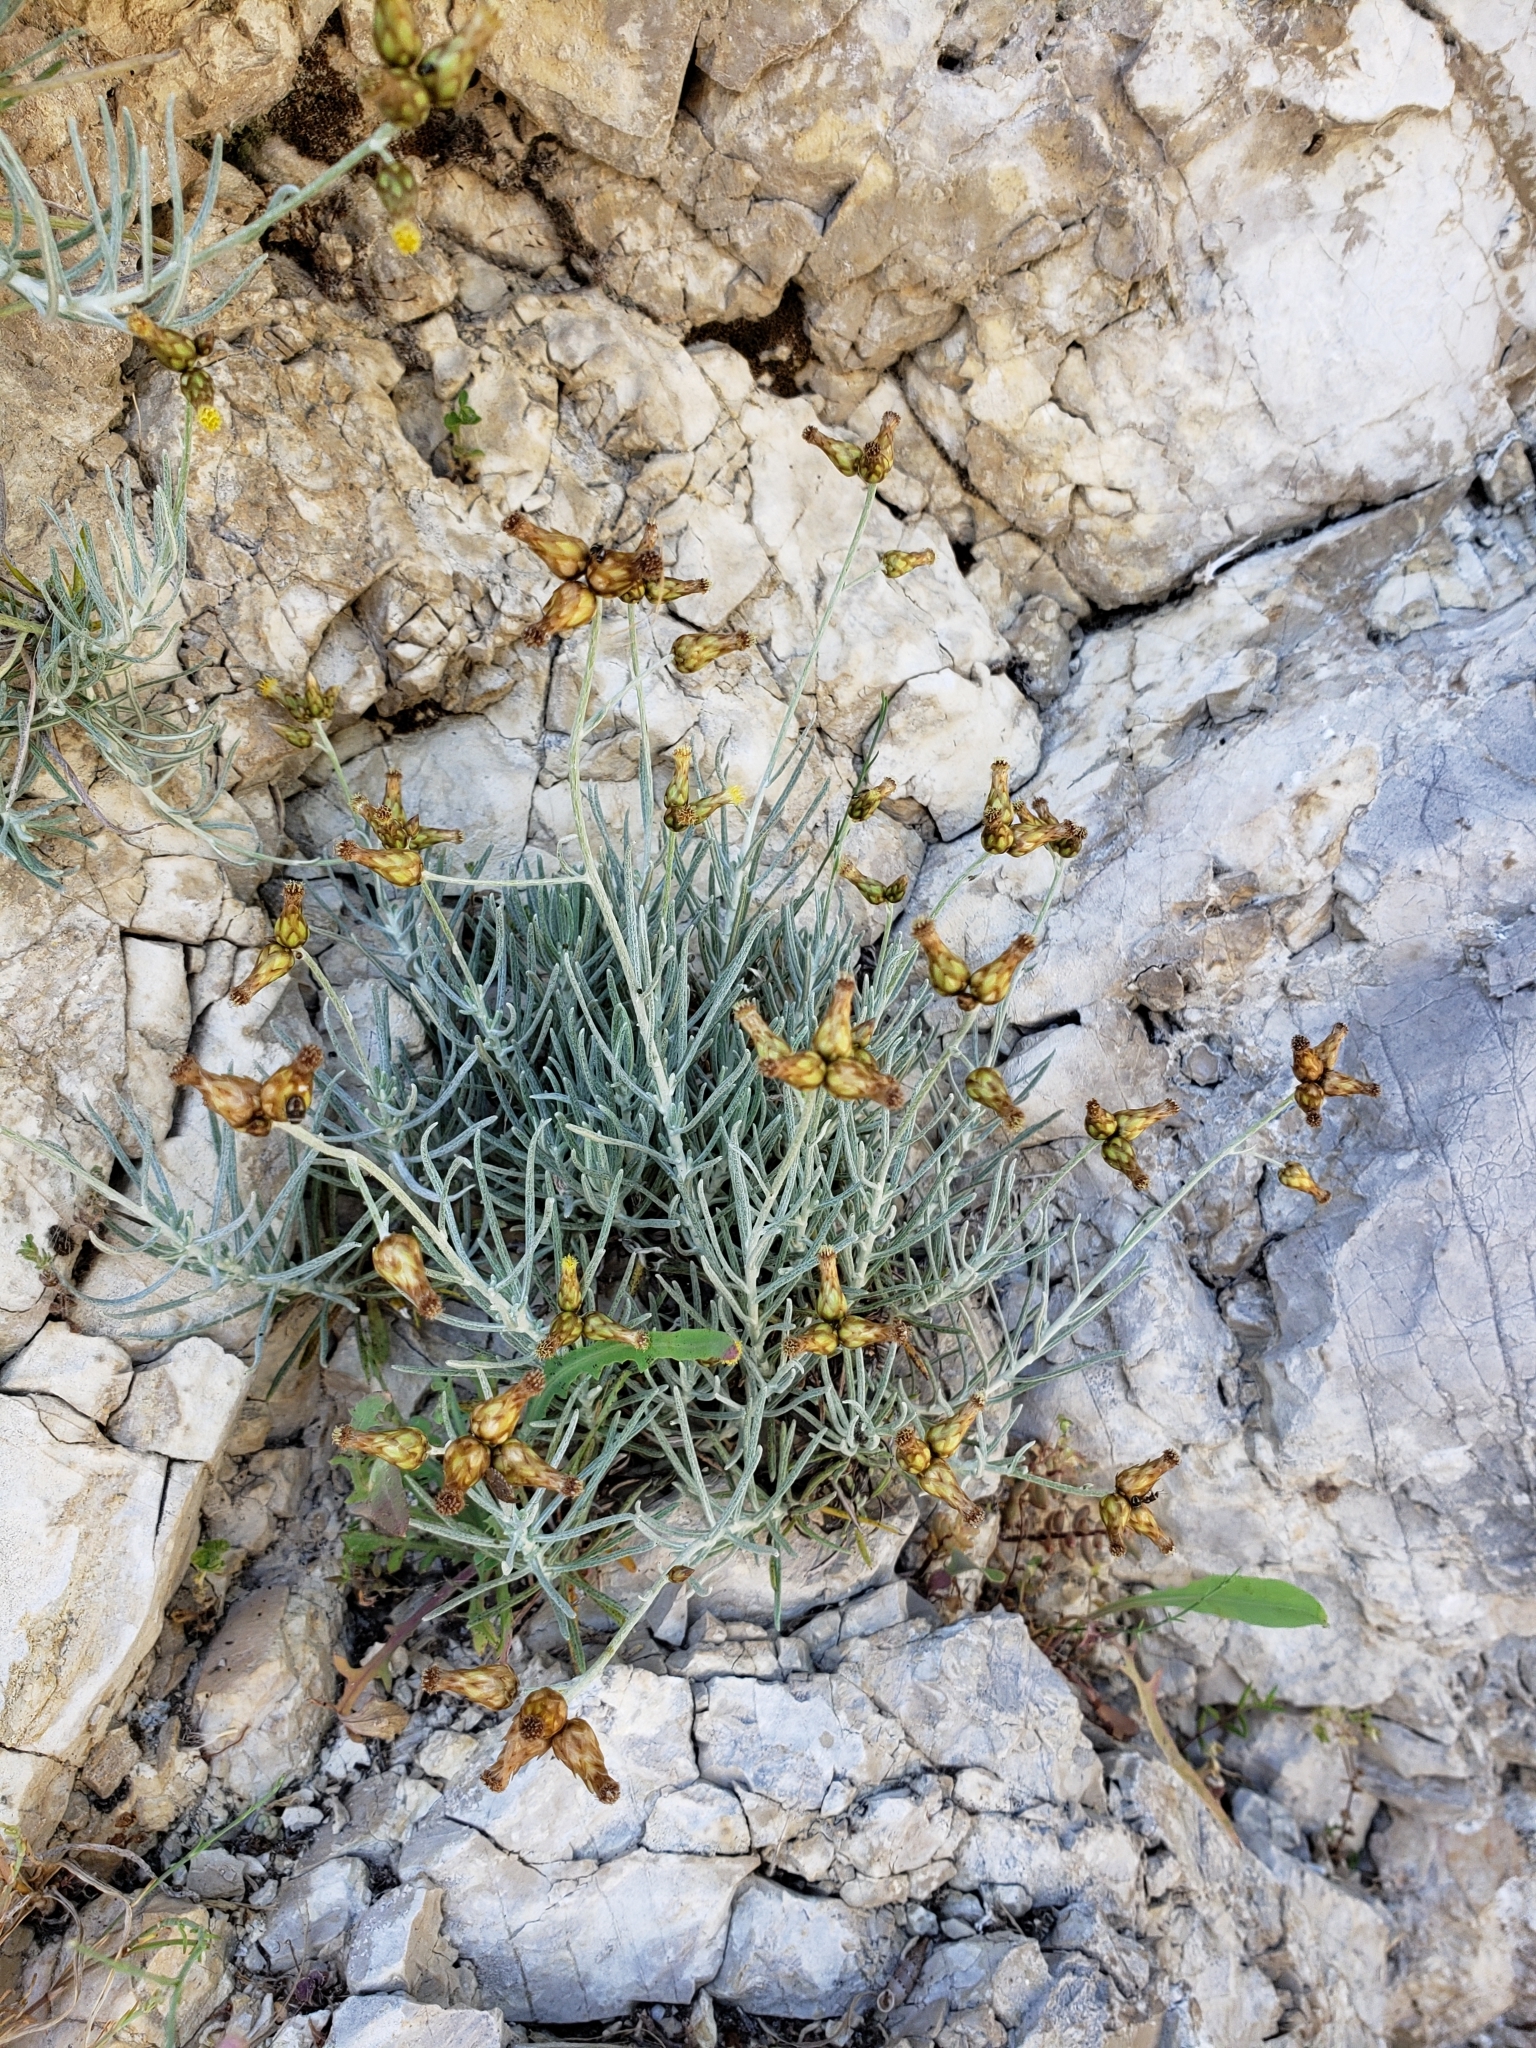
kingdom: Plantae
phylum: Tracheophyta
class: Magnoliopsida
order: Asterales
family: Asteraceae
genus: Phagnalon
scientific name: Phagnalon sordidum
